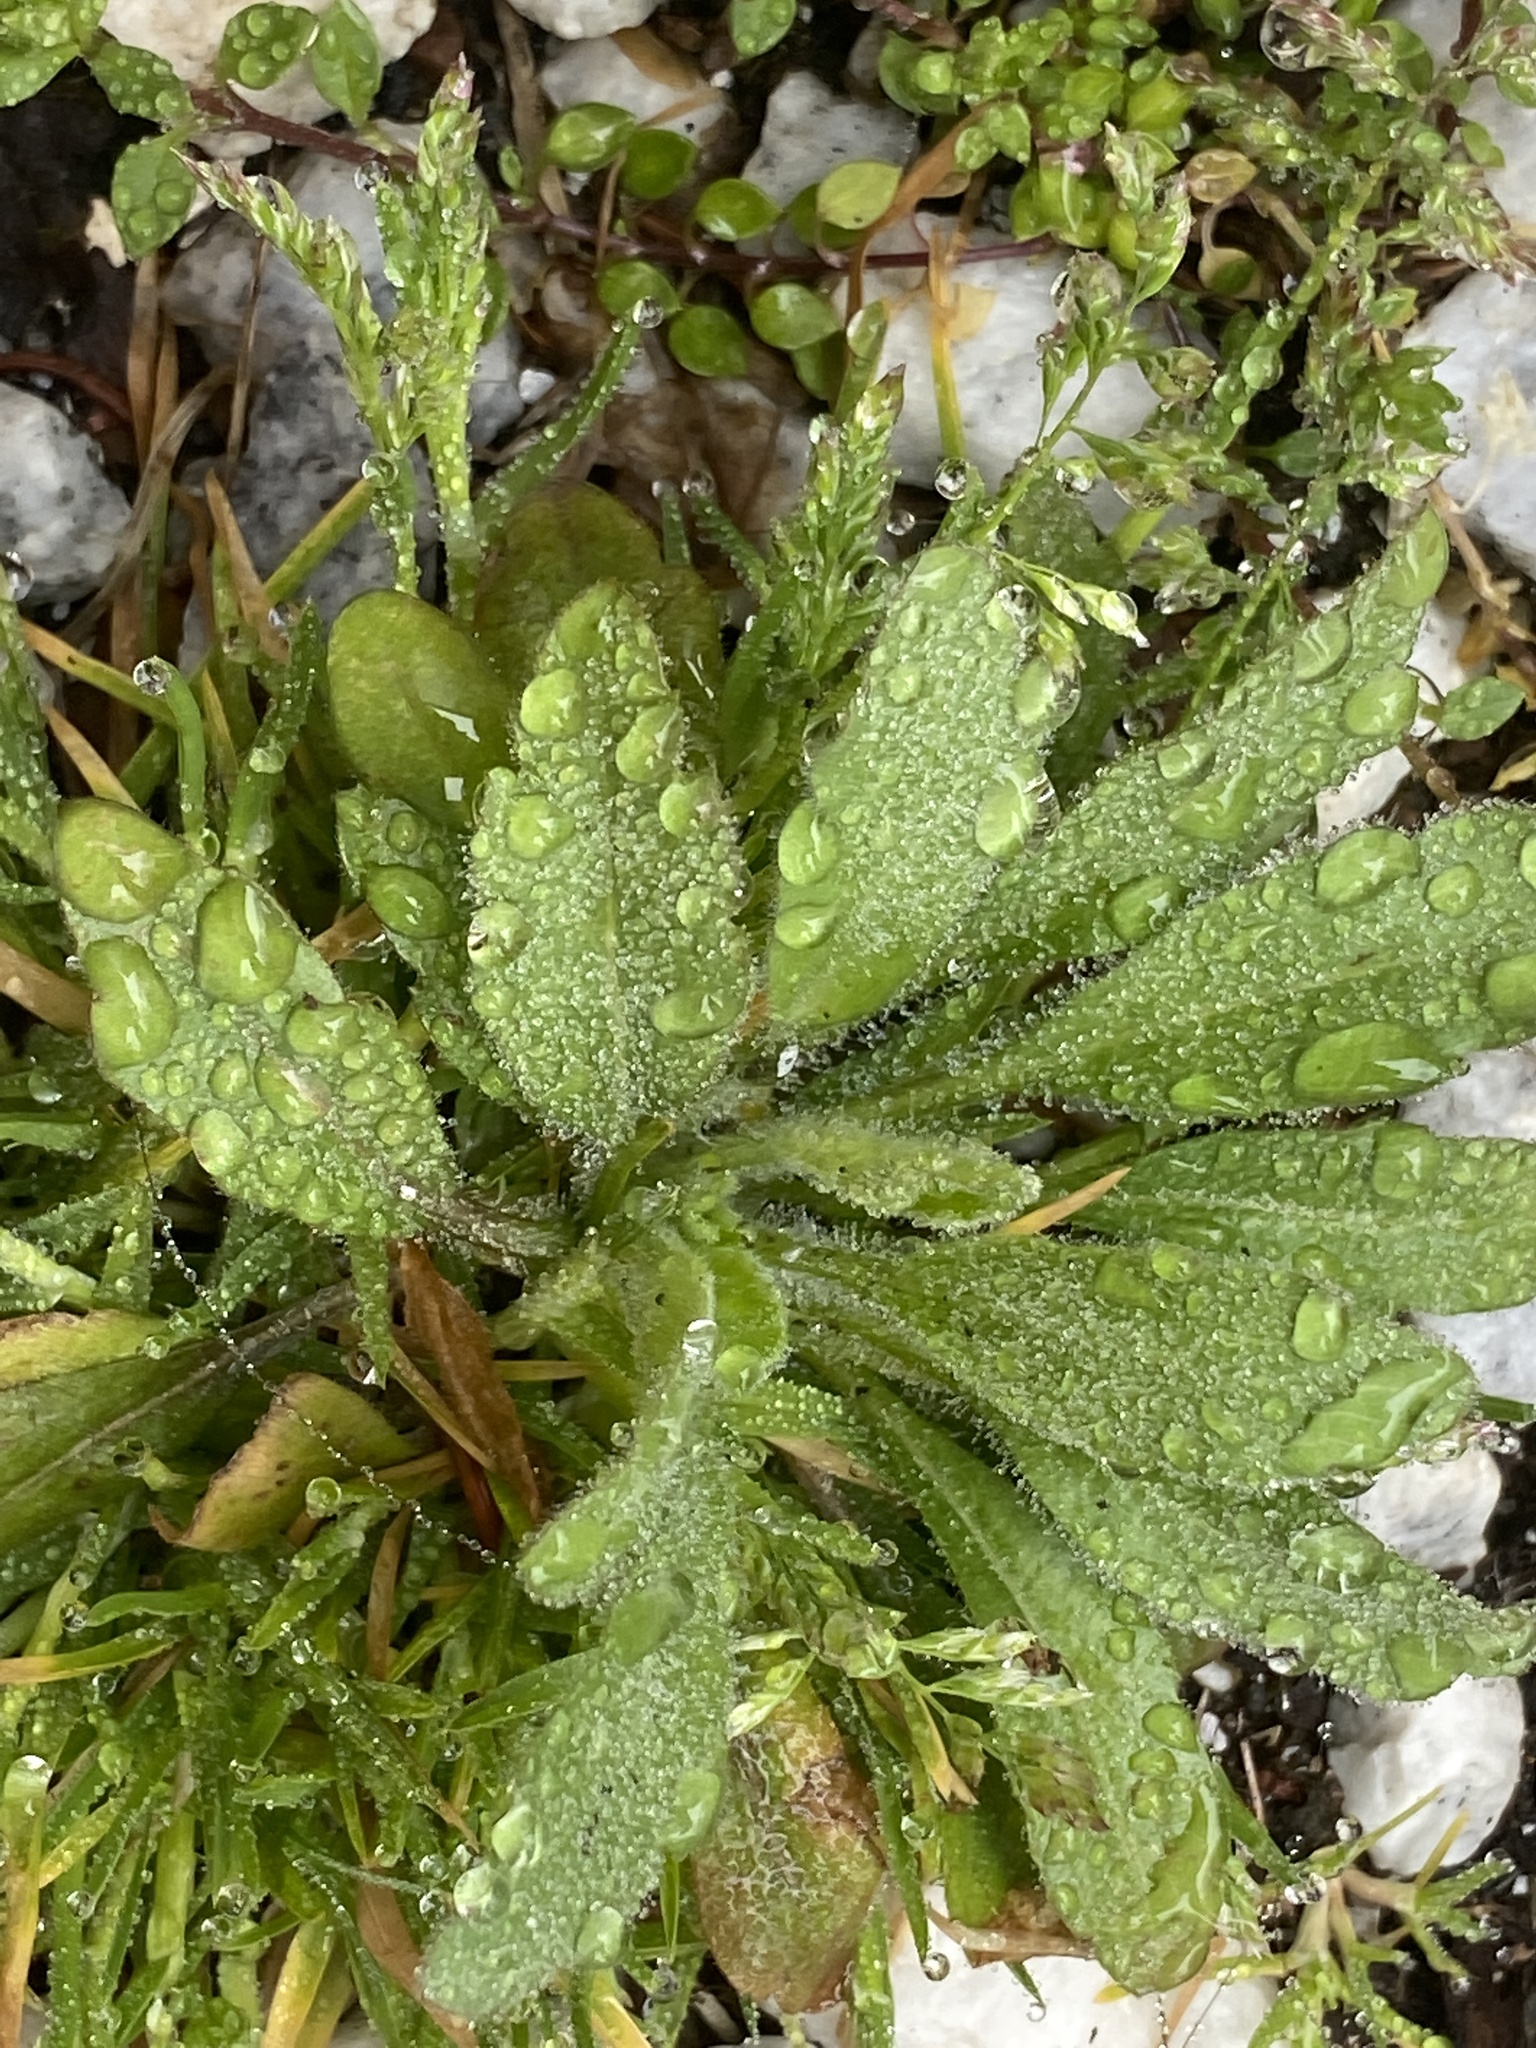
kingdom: Plantae
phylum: Tracheophyta
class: Magnoliopsida
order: Asterales
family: Asteraceae
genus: Erigeron
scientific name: Erigeron canadensis
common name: Canadian fleabane
